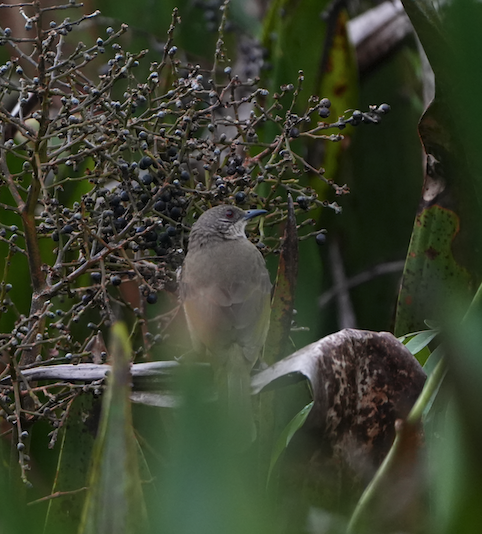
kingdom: Animalia
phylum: Chordata
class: Aves
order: Passeriformes
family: Pycnonotidae
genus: Pycnonotus
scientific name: Pycnonotus plumosus
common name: Olive-winged bulbul
